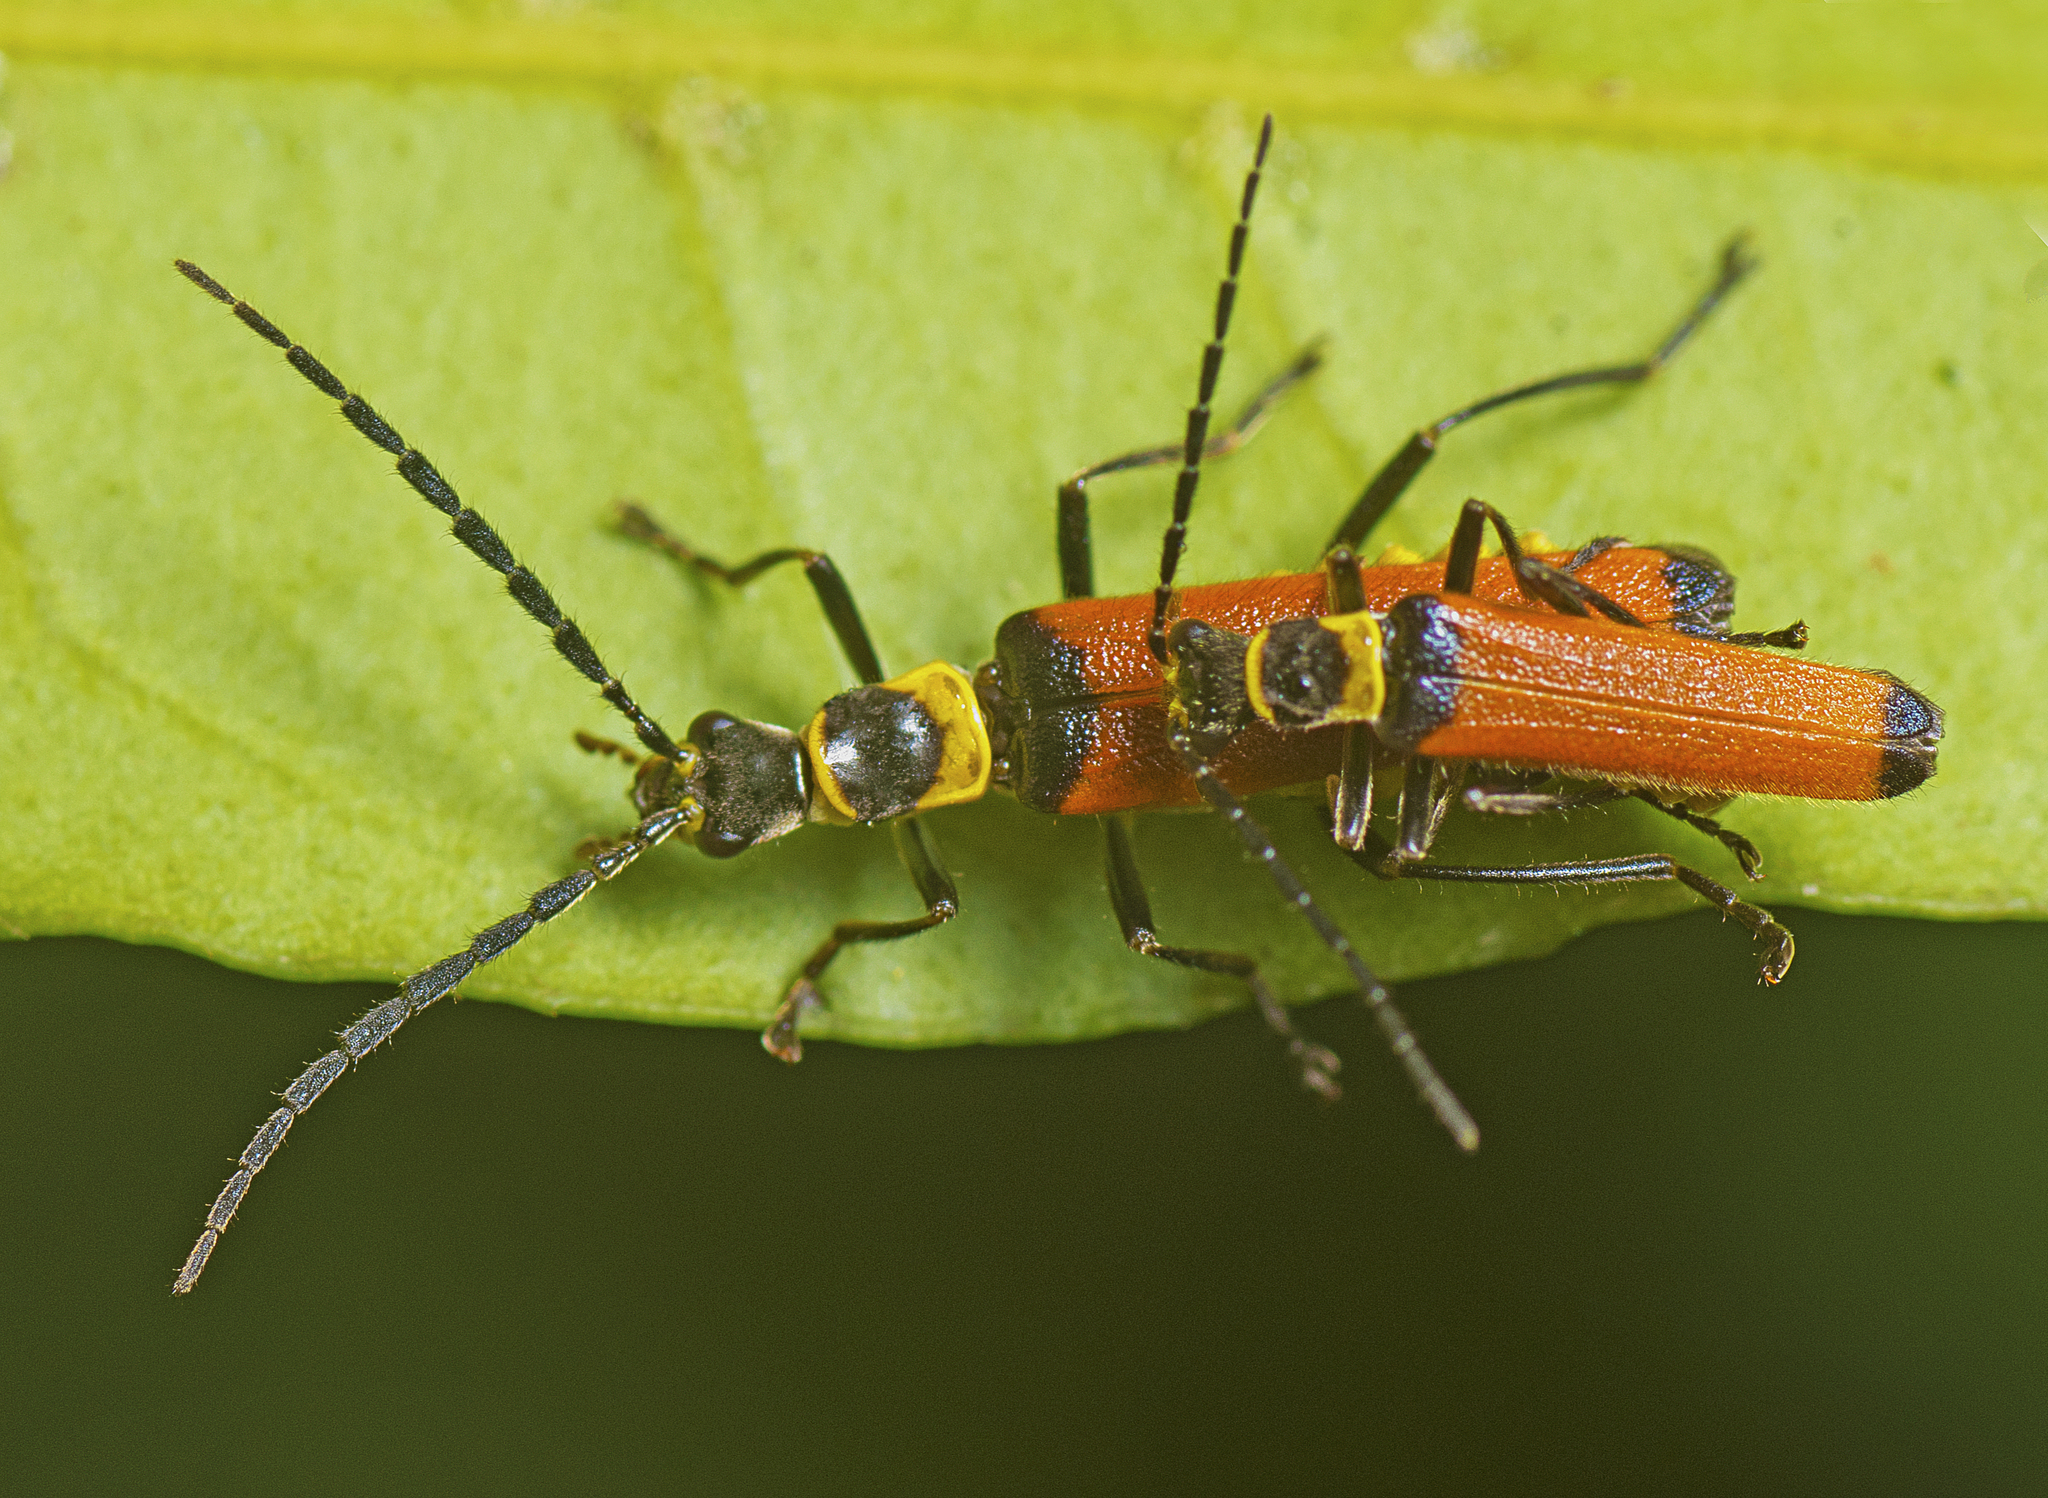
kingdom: Animalia
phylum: Arthropoda
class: Insecta
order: Coleoptera
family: Cantharidae
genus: Chauliognathus
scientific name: Chauliognathus
